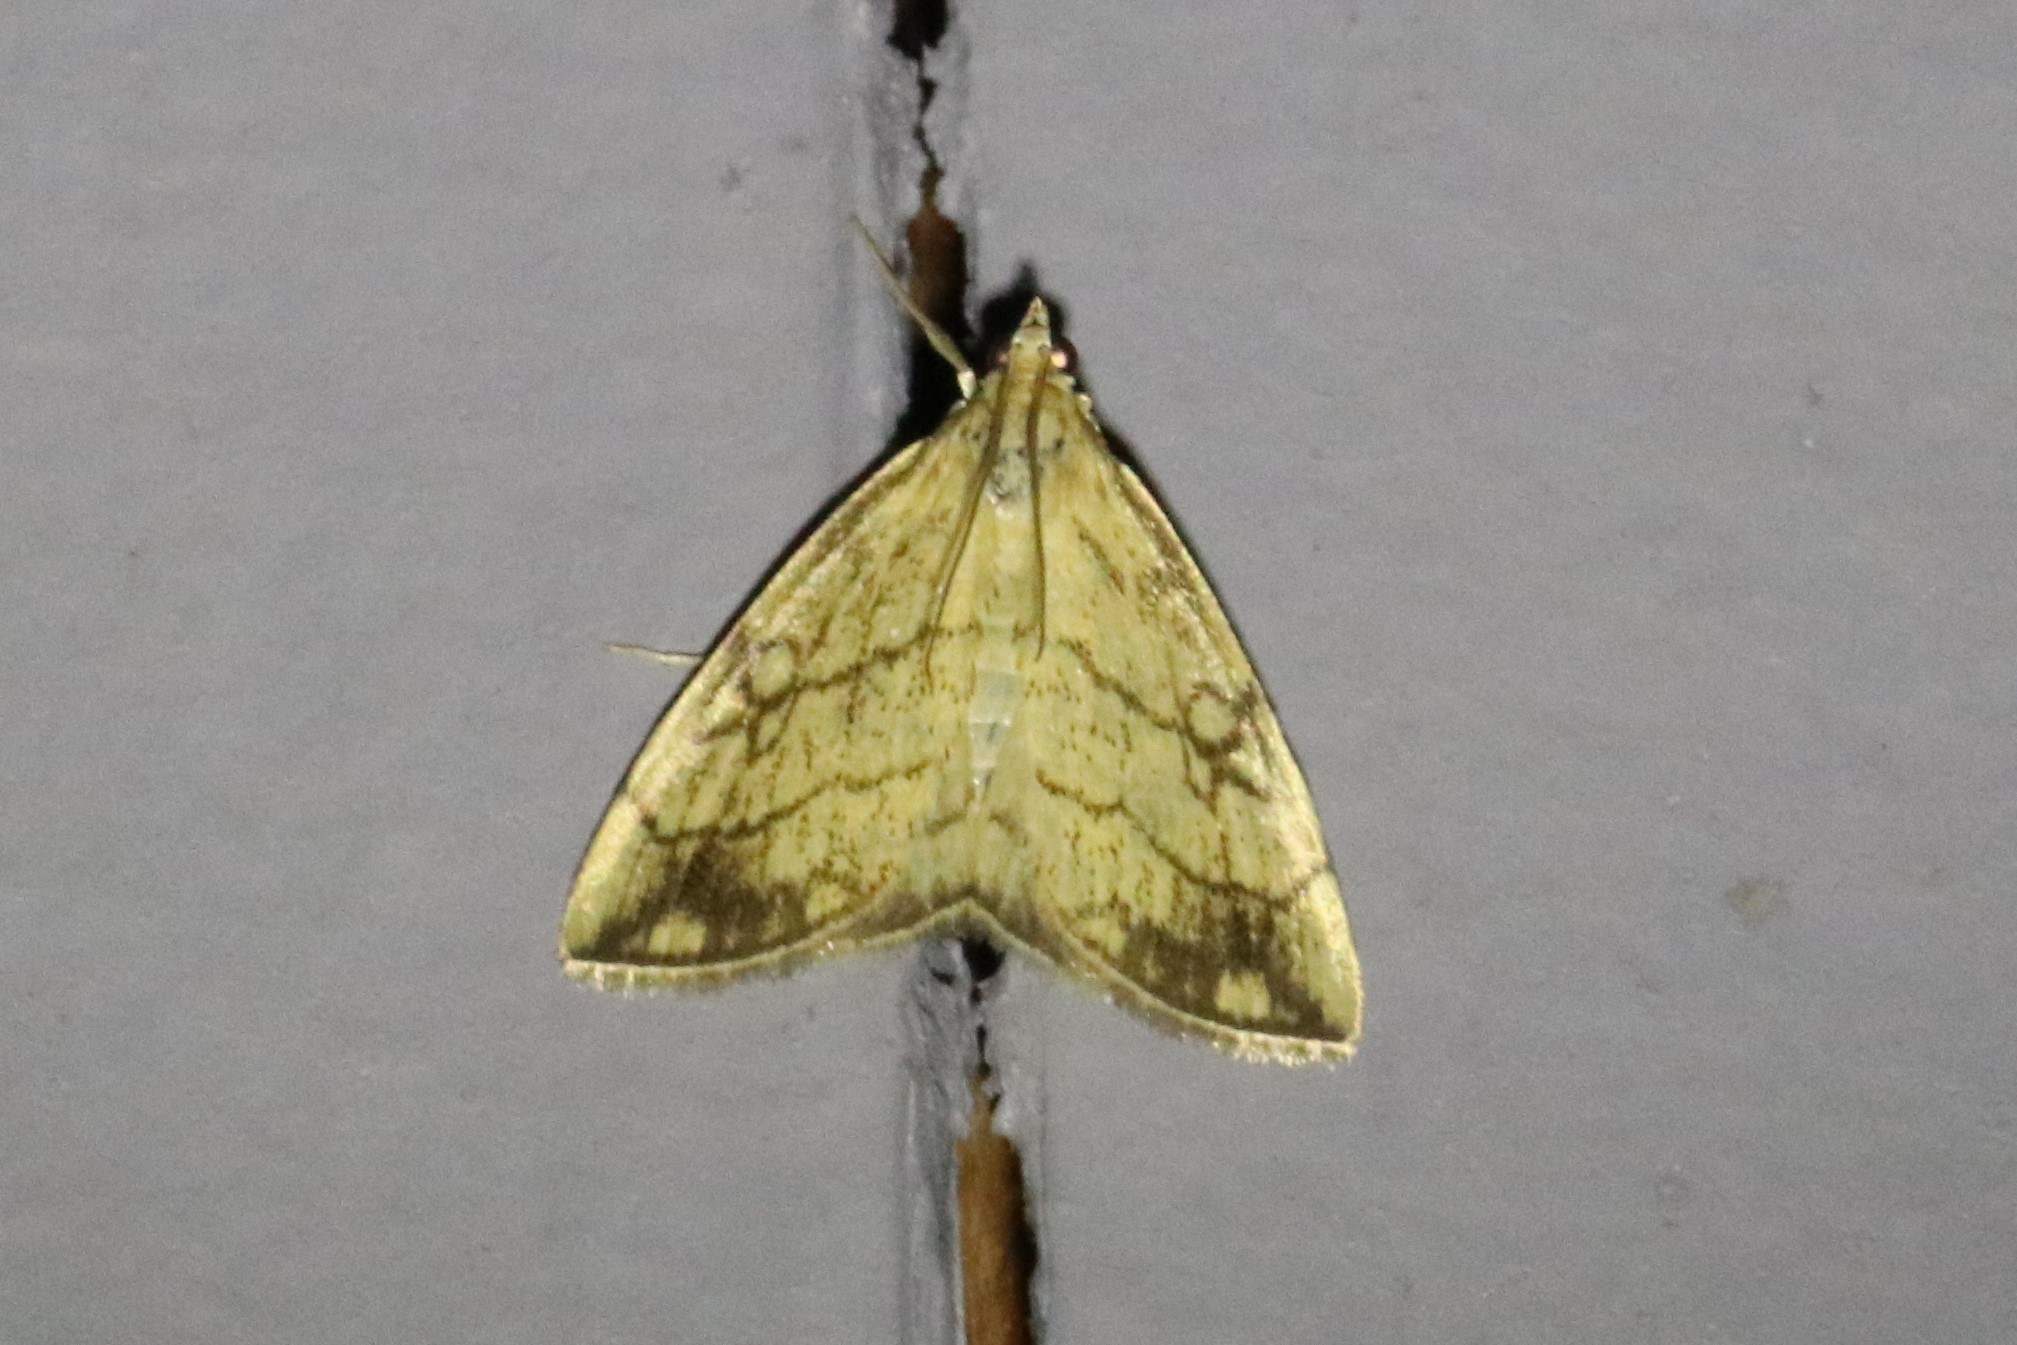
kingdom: Animalia
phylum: Arthropoda
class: Insecta
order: Lepidoptera
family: Crambidae
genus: Evergestis
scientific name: Evergestis pallidata
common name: Chequered pearl
